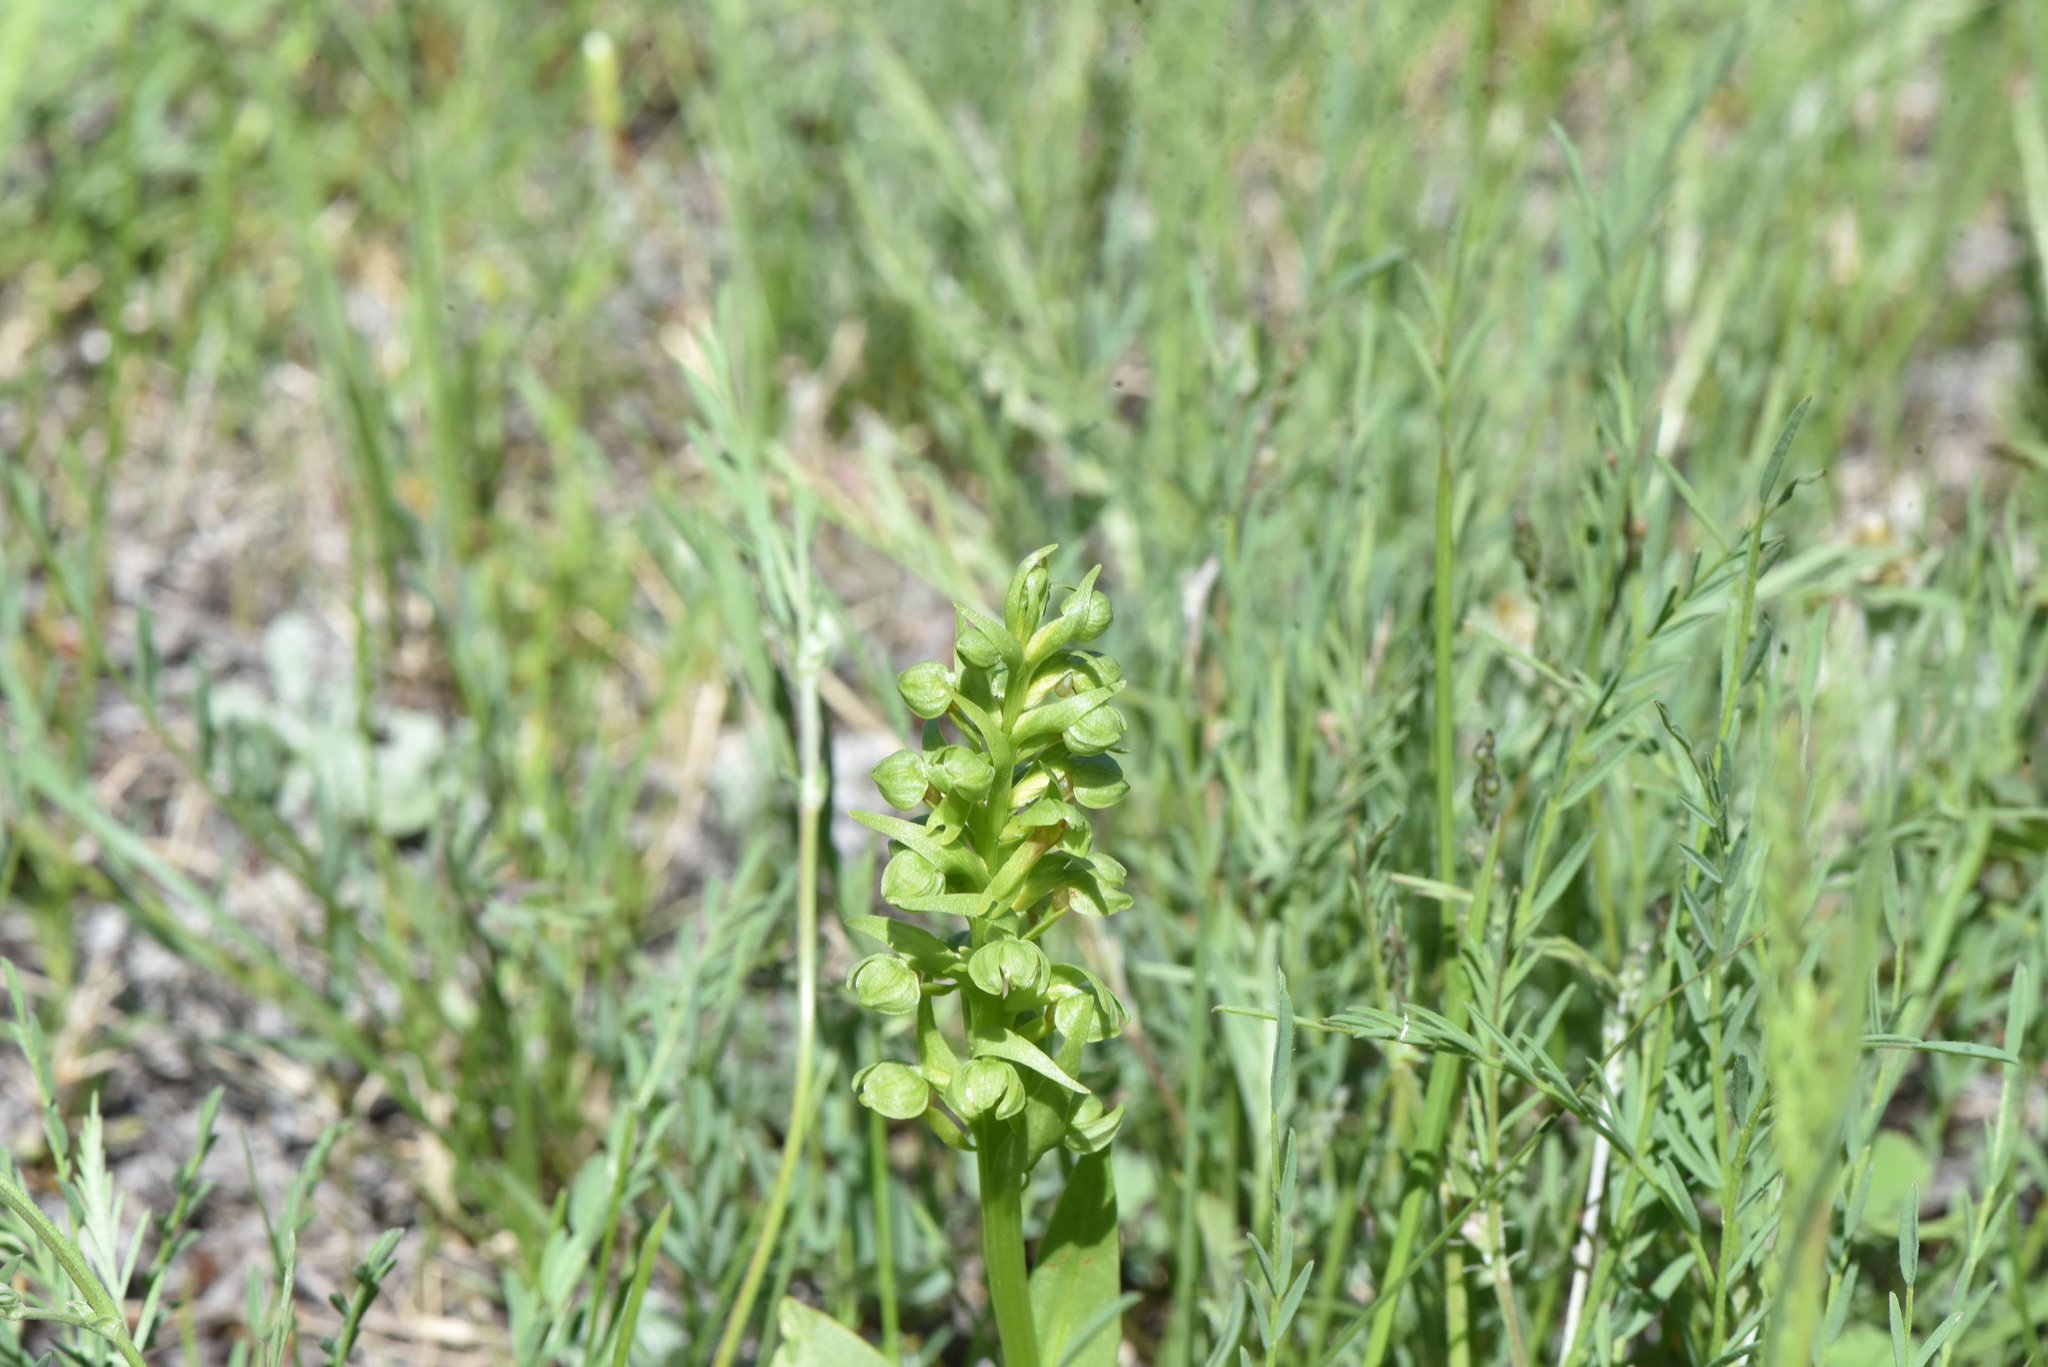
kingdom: Plantae
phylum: Tracheophyta
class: Liliopsida
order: Asparagales
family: Orchidaceae
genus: Dactylorhiza
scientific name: Dactylorhiza viridis
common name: Longbract frog orchid
